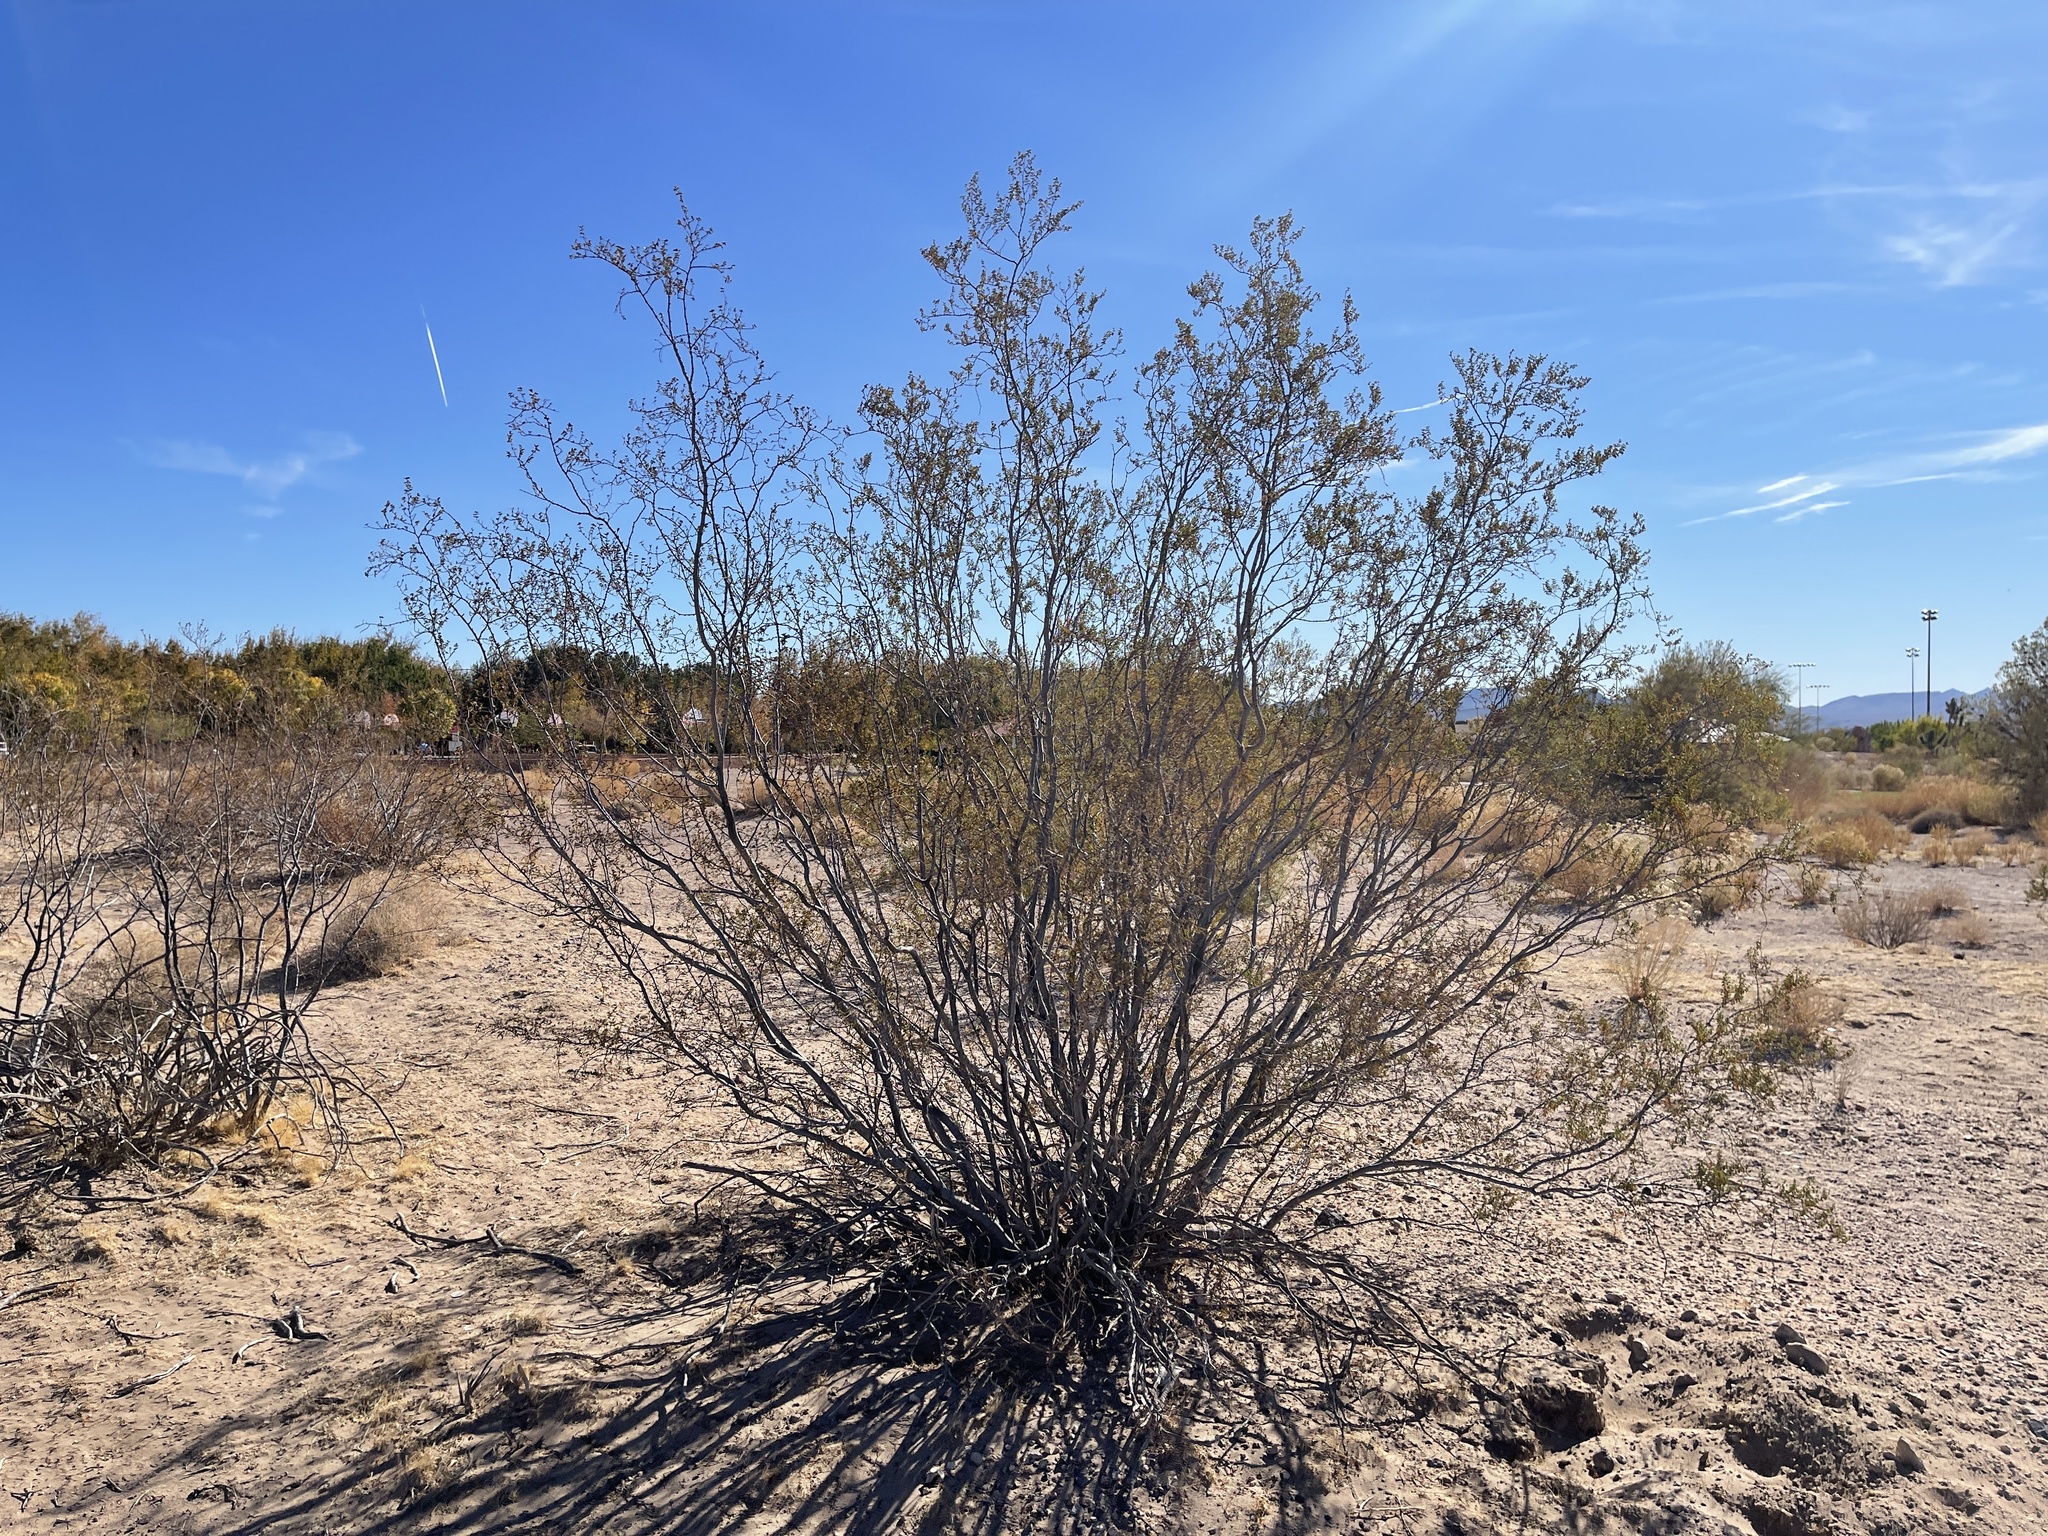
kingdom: Plantae
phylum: Tracheophyta
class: Magnoliopsida
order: Zygophyllales
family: Zygophyllaceae
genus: Larrea
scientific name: Larrea tridentata
